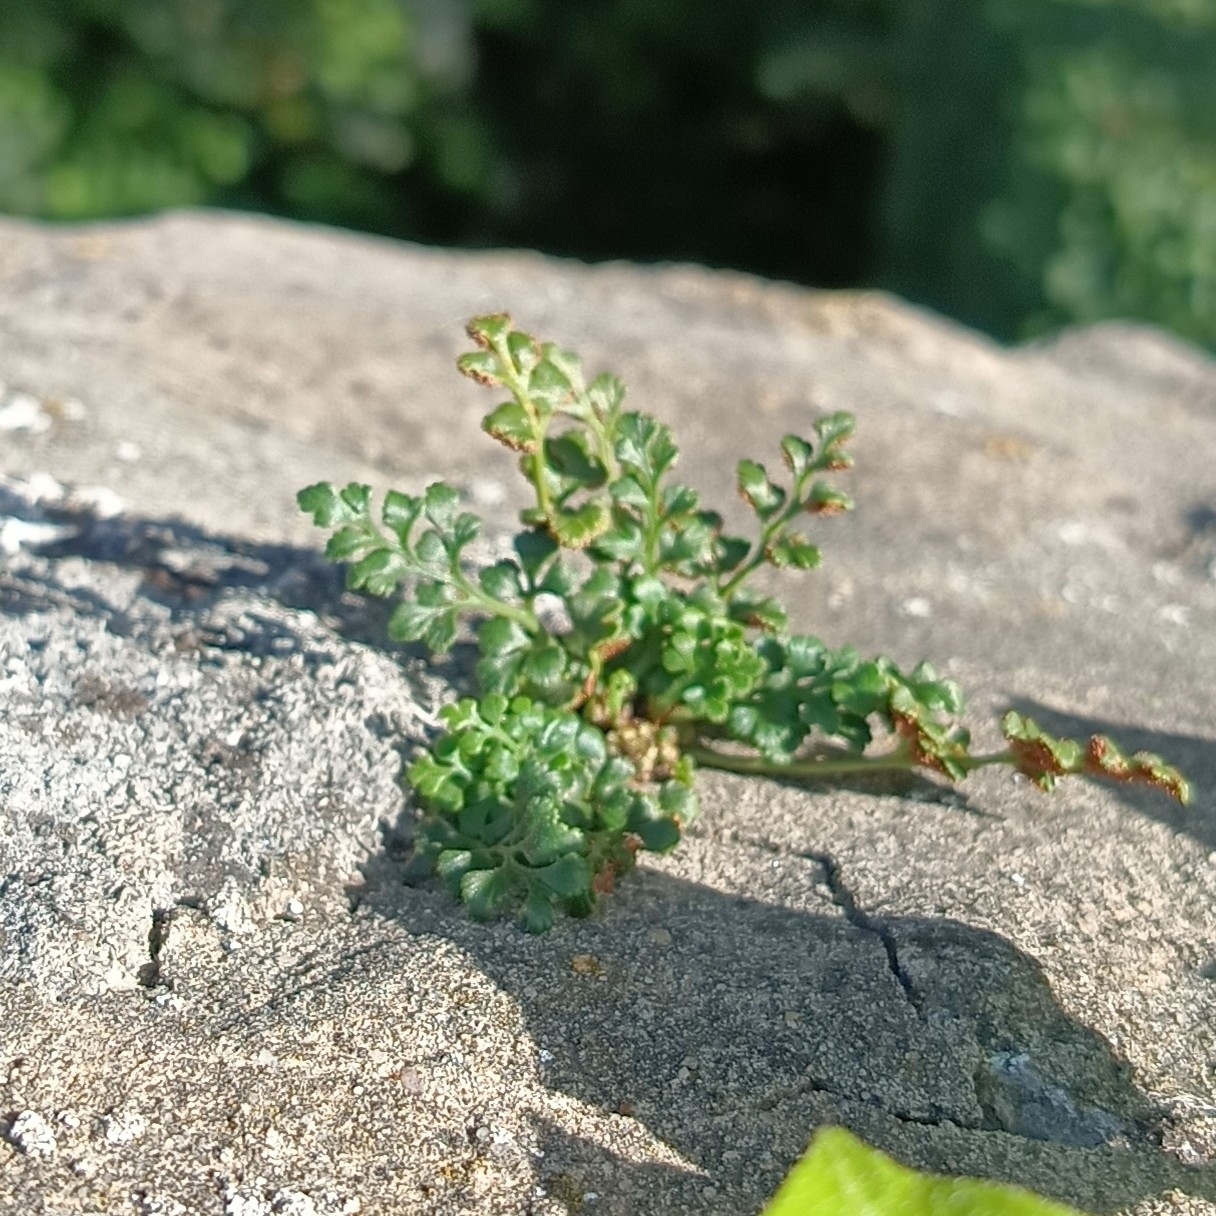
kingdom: Plantae
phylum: Tracheophyta
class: Polypodiopsida
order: Polypodiales
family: Aspleniaceae
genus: Asplenium
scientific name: Asplenium ruta-muraria
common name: Wall-rue
